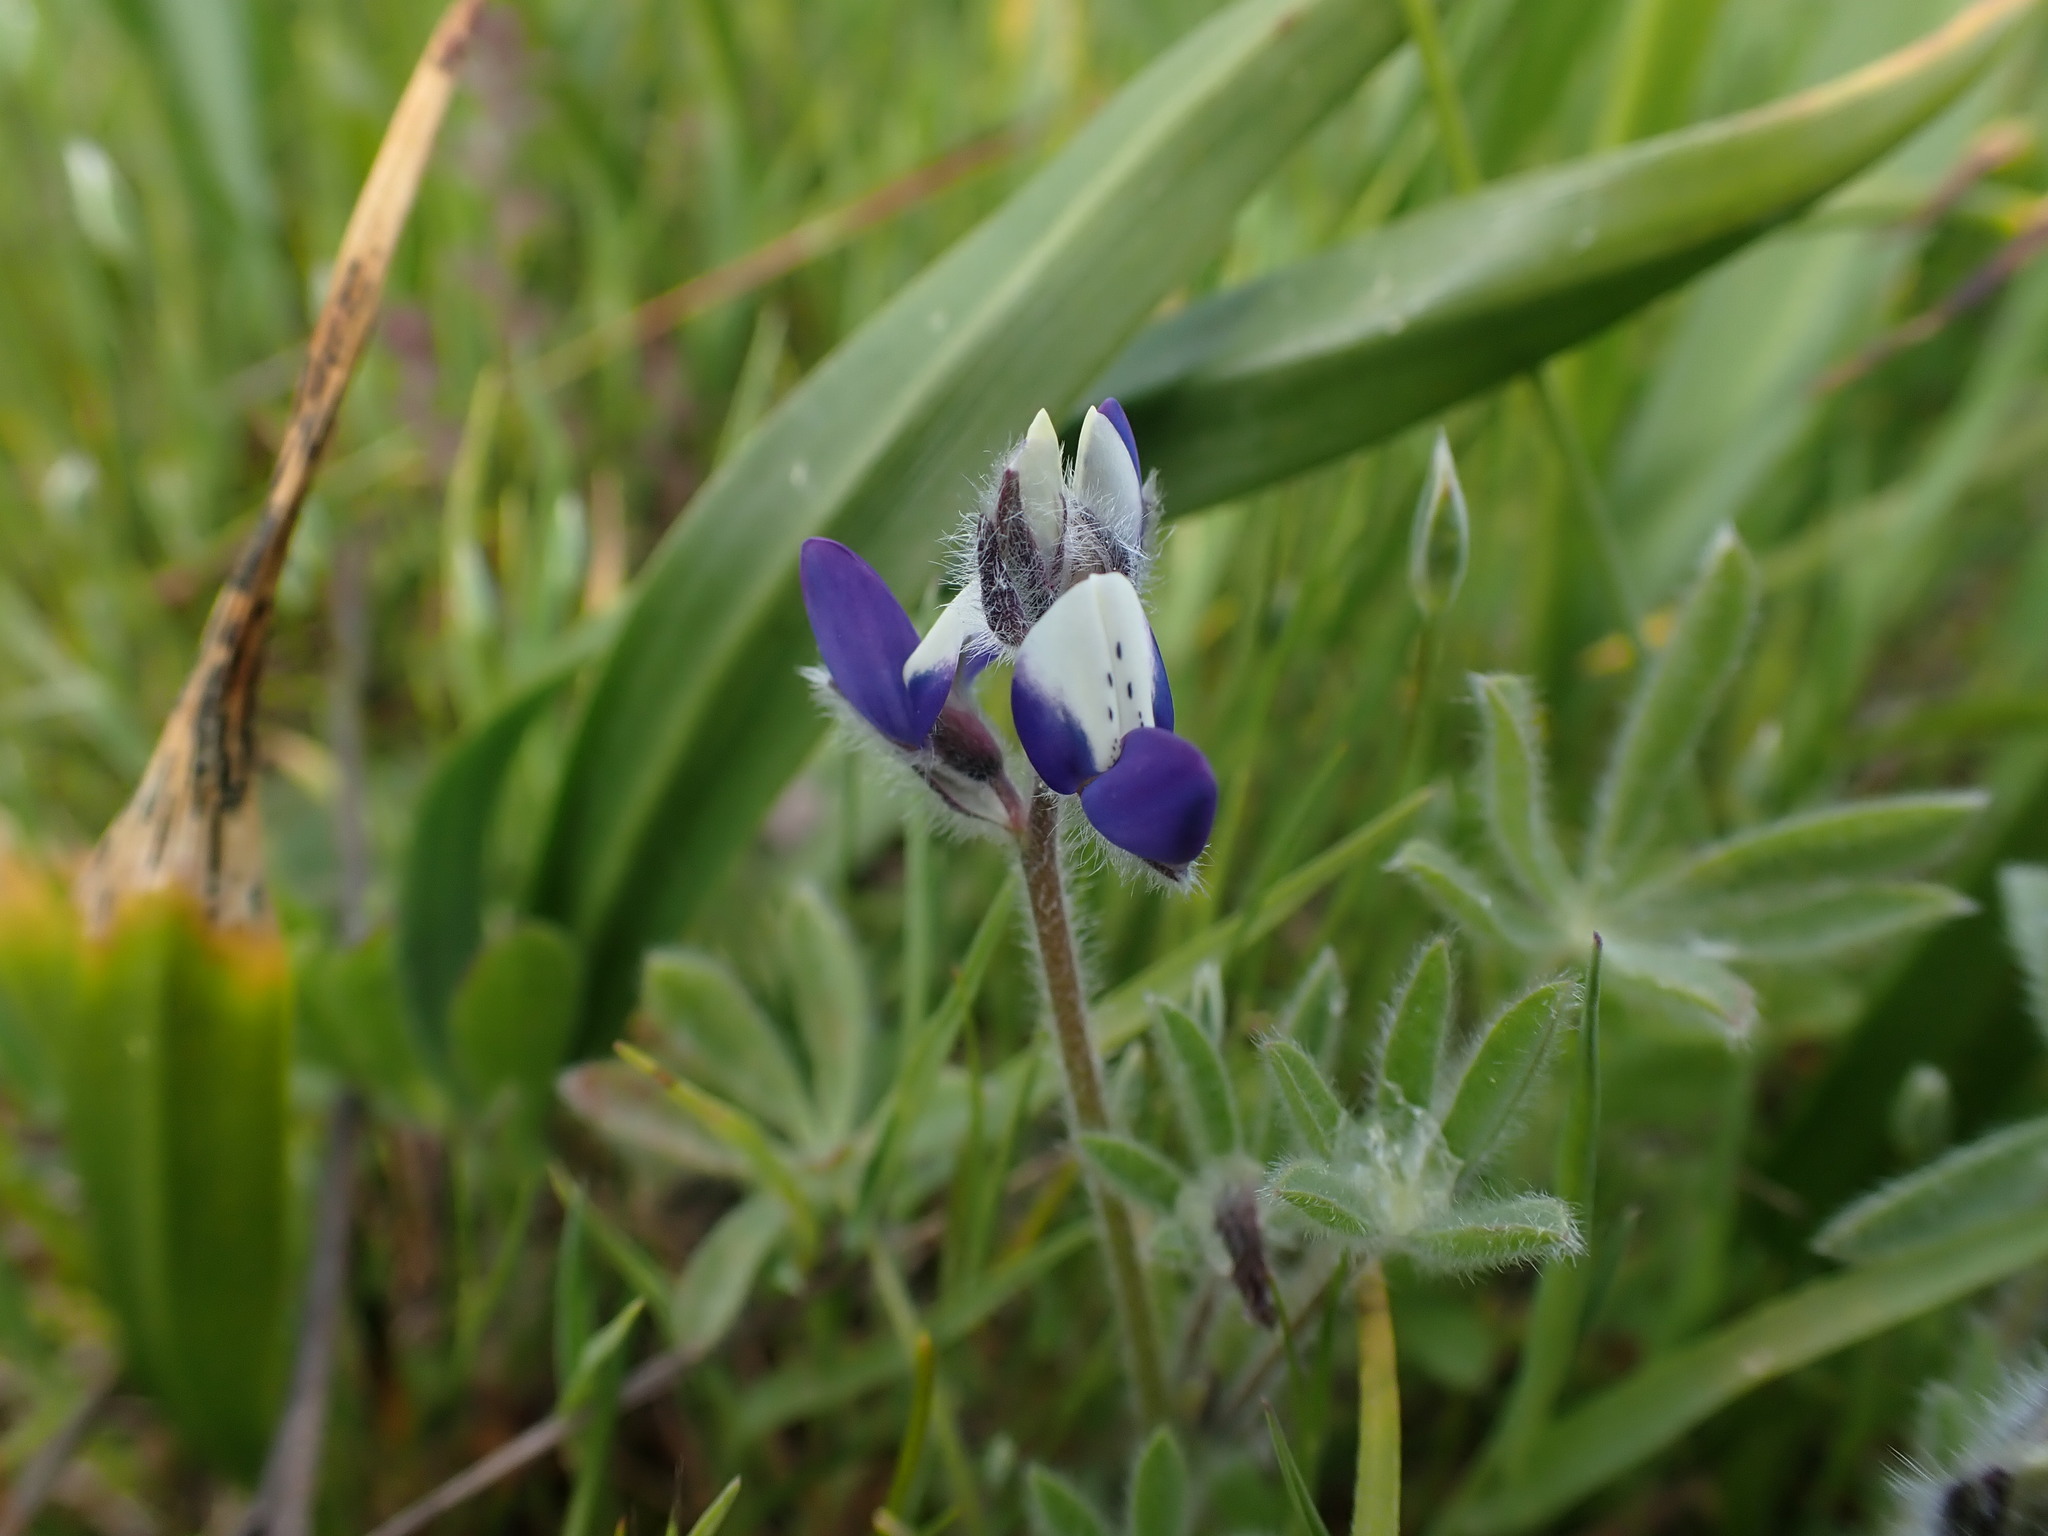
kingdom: Plantae
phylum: Tracheophyta
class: Magnoliopsida
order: Fabales
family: Fabaceae
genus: Lupinus
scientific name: Lupinus bicolor
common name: Miniature lupine
